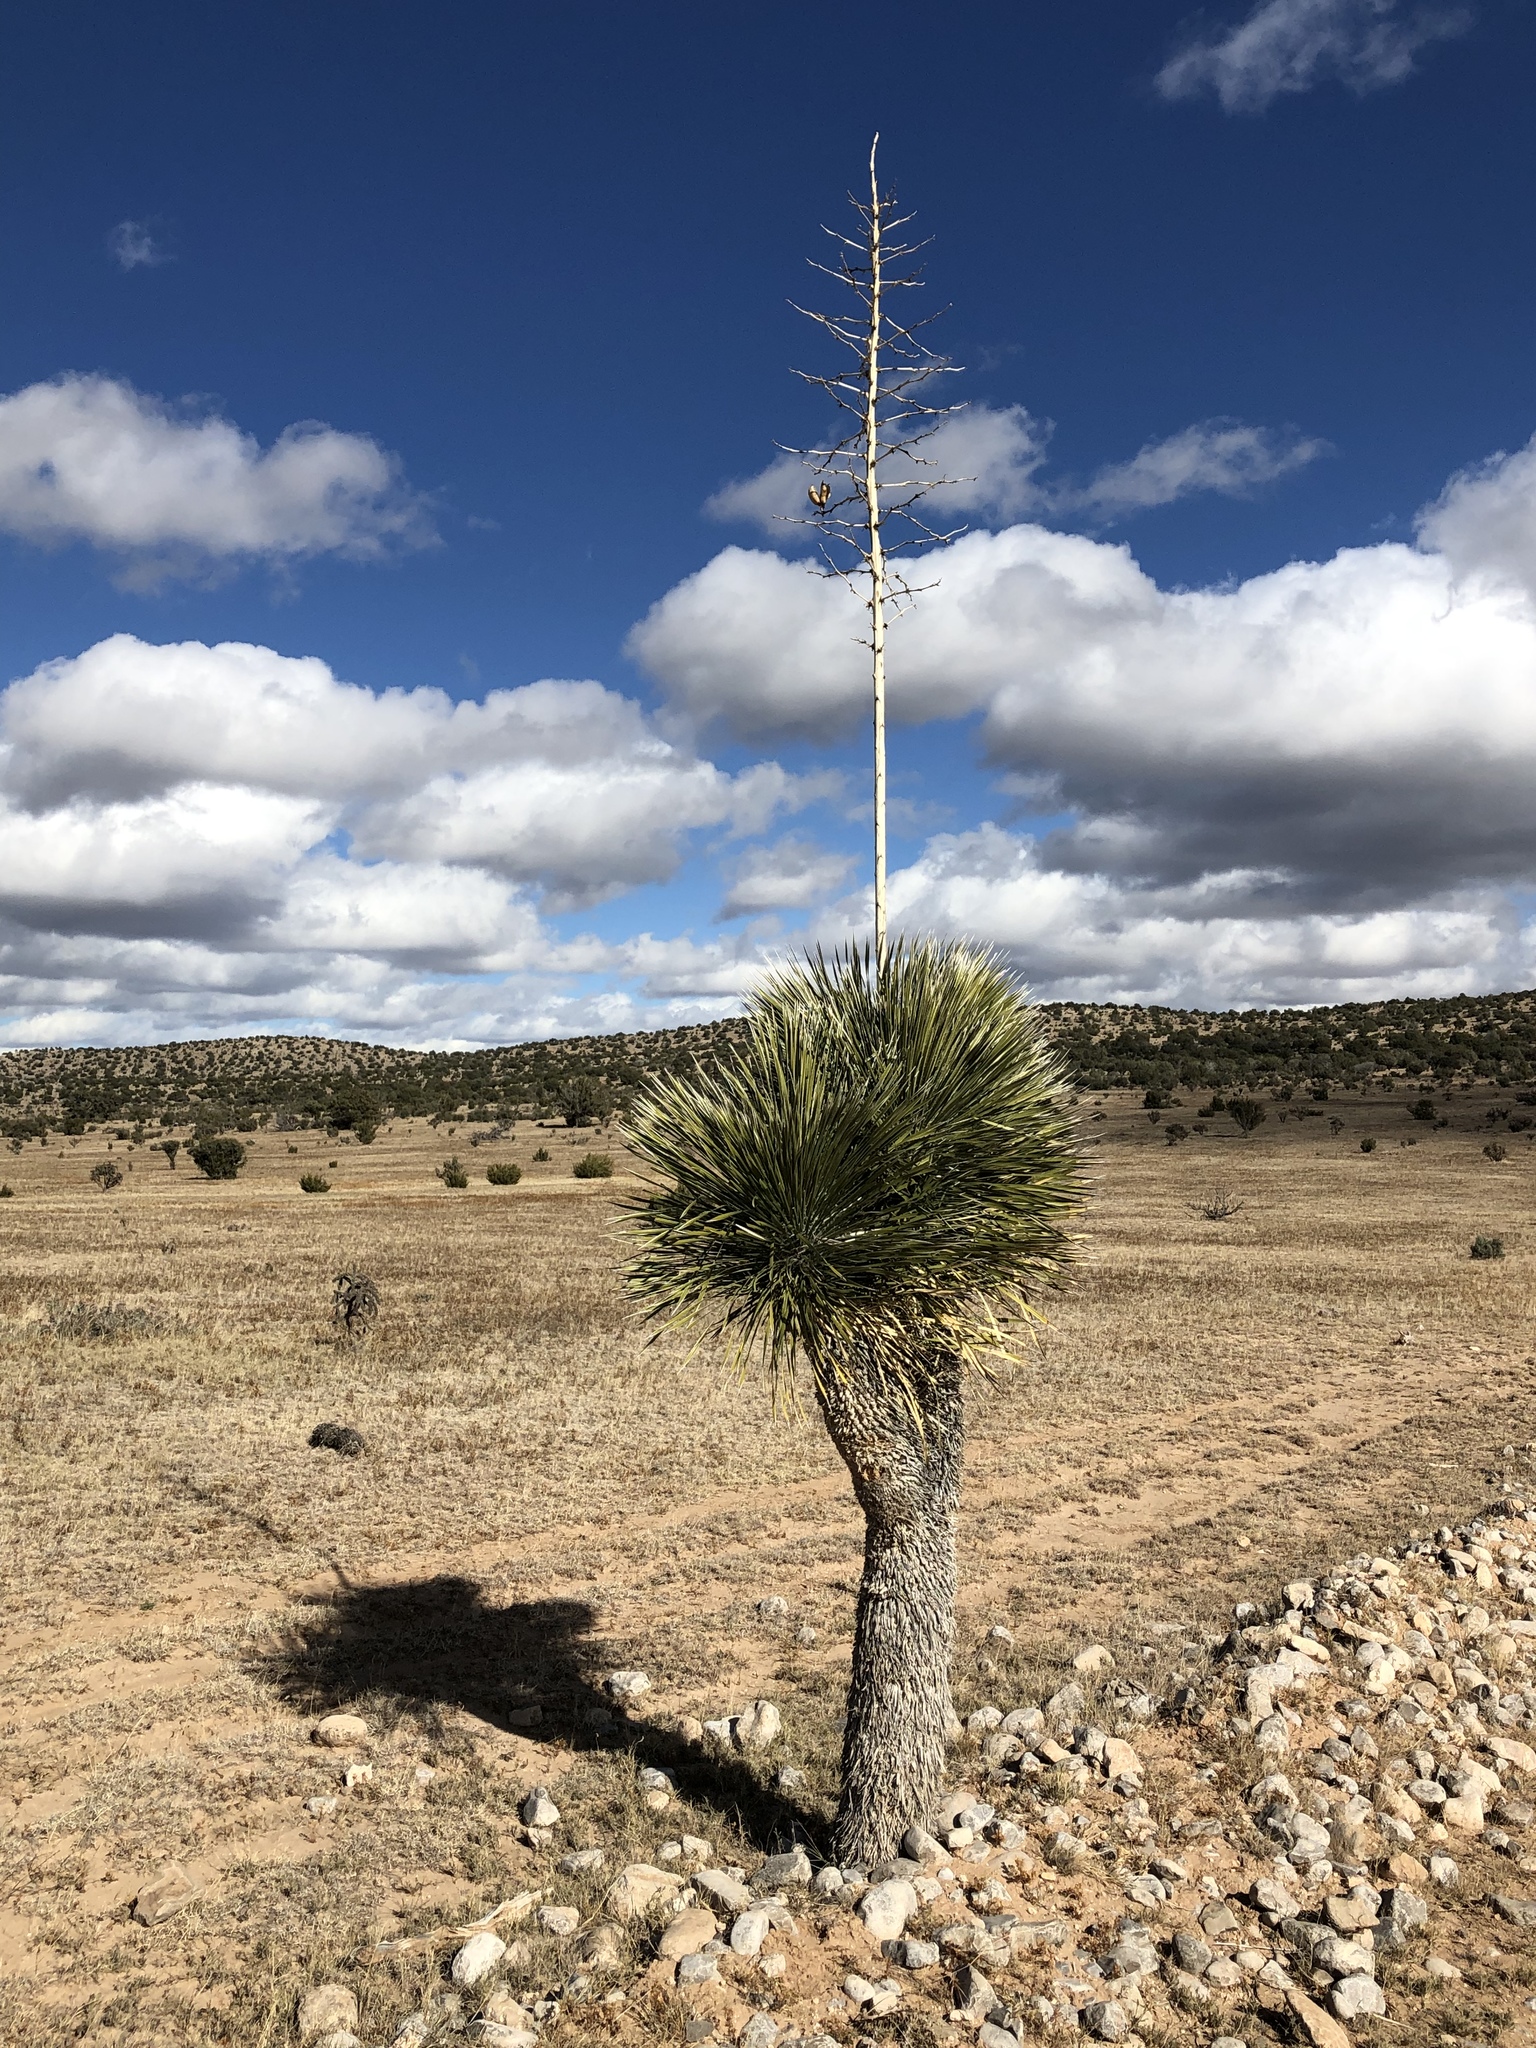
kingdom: Plantae
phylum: Tracheophyta
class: Liliopsida
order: Asparagales
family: Asparagaceae
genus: Yucca
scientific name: Yucca elata
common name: Palmella
